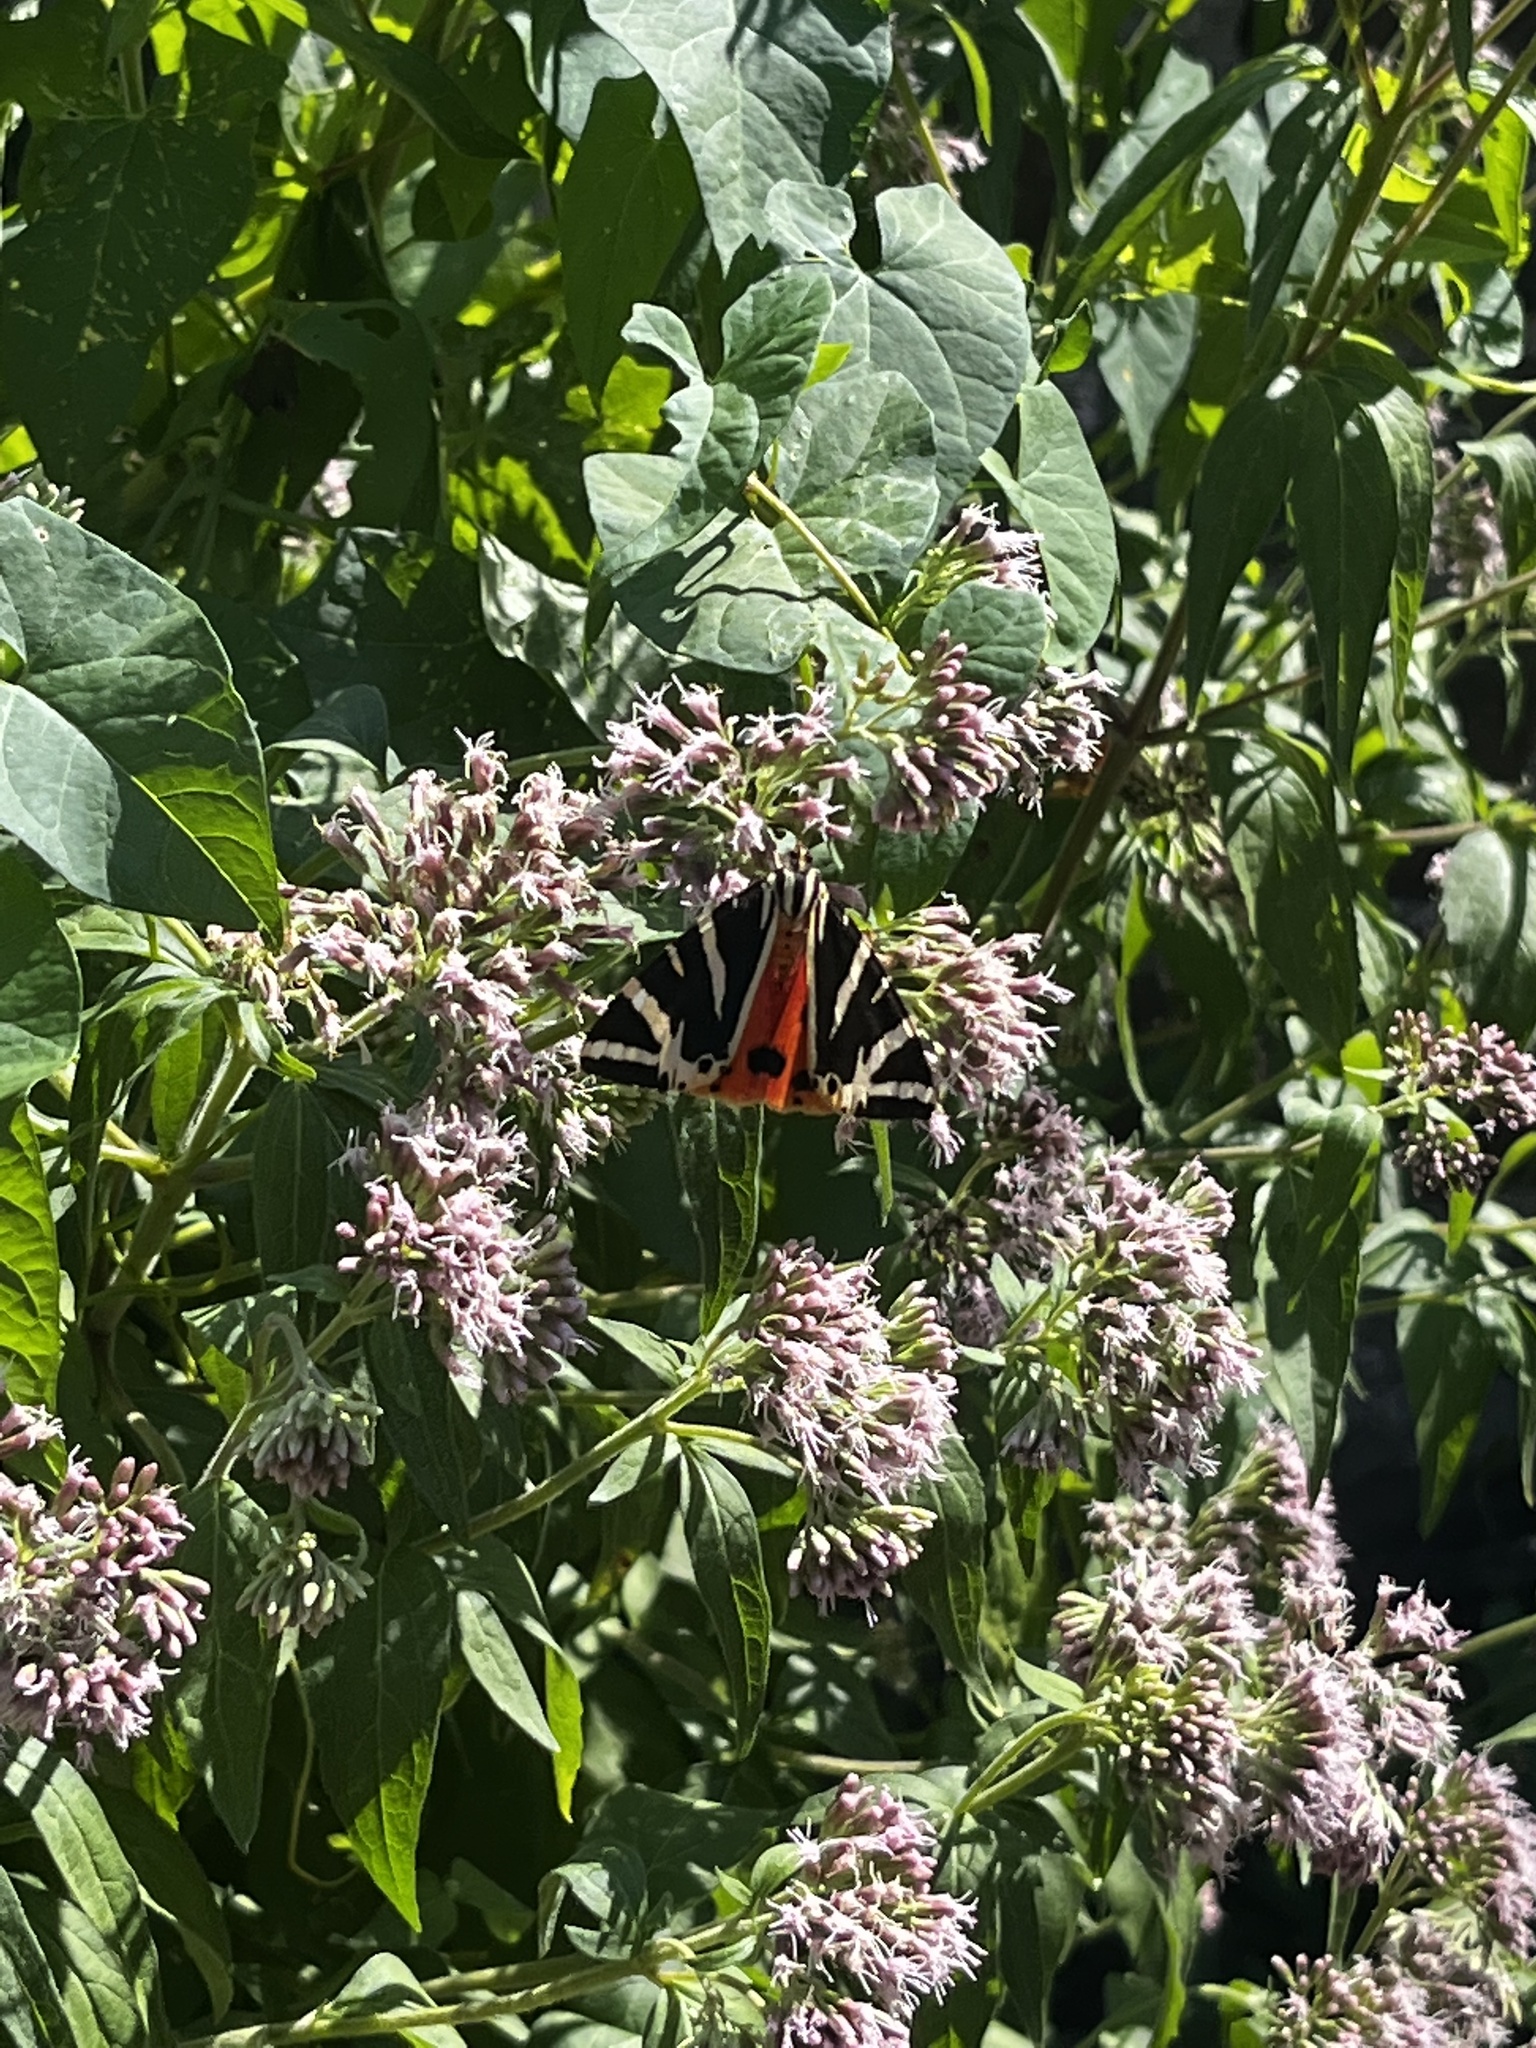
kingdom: Animalia
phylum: Arthropoda
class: Insecta
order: Lepidoptera
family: Erebidae
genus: Euplagia
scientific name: Euplagia quadripunctaria
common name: Jersey tiger
